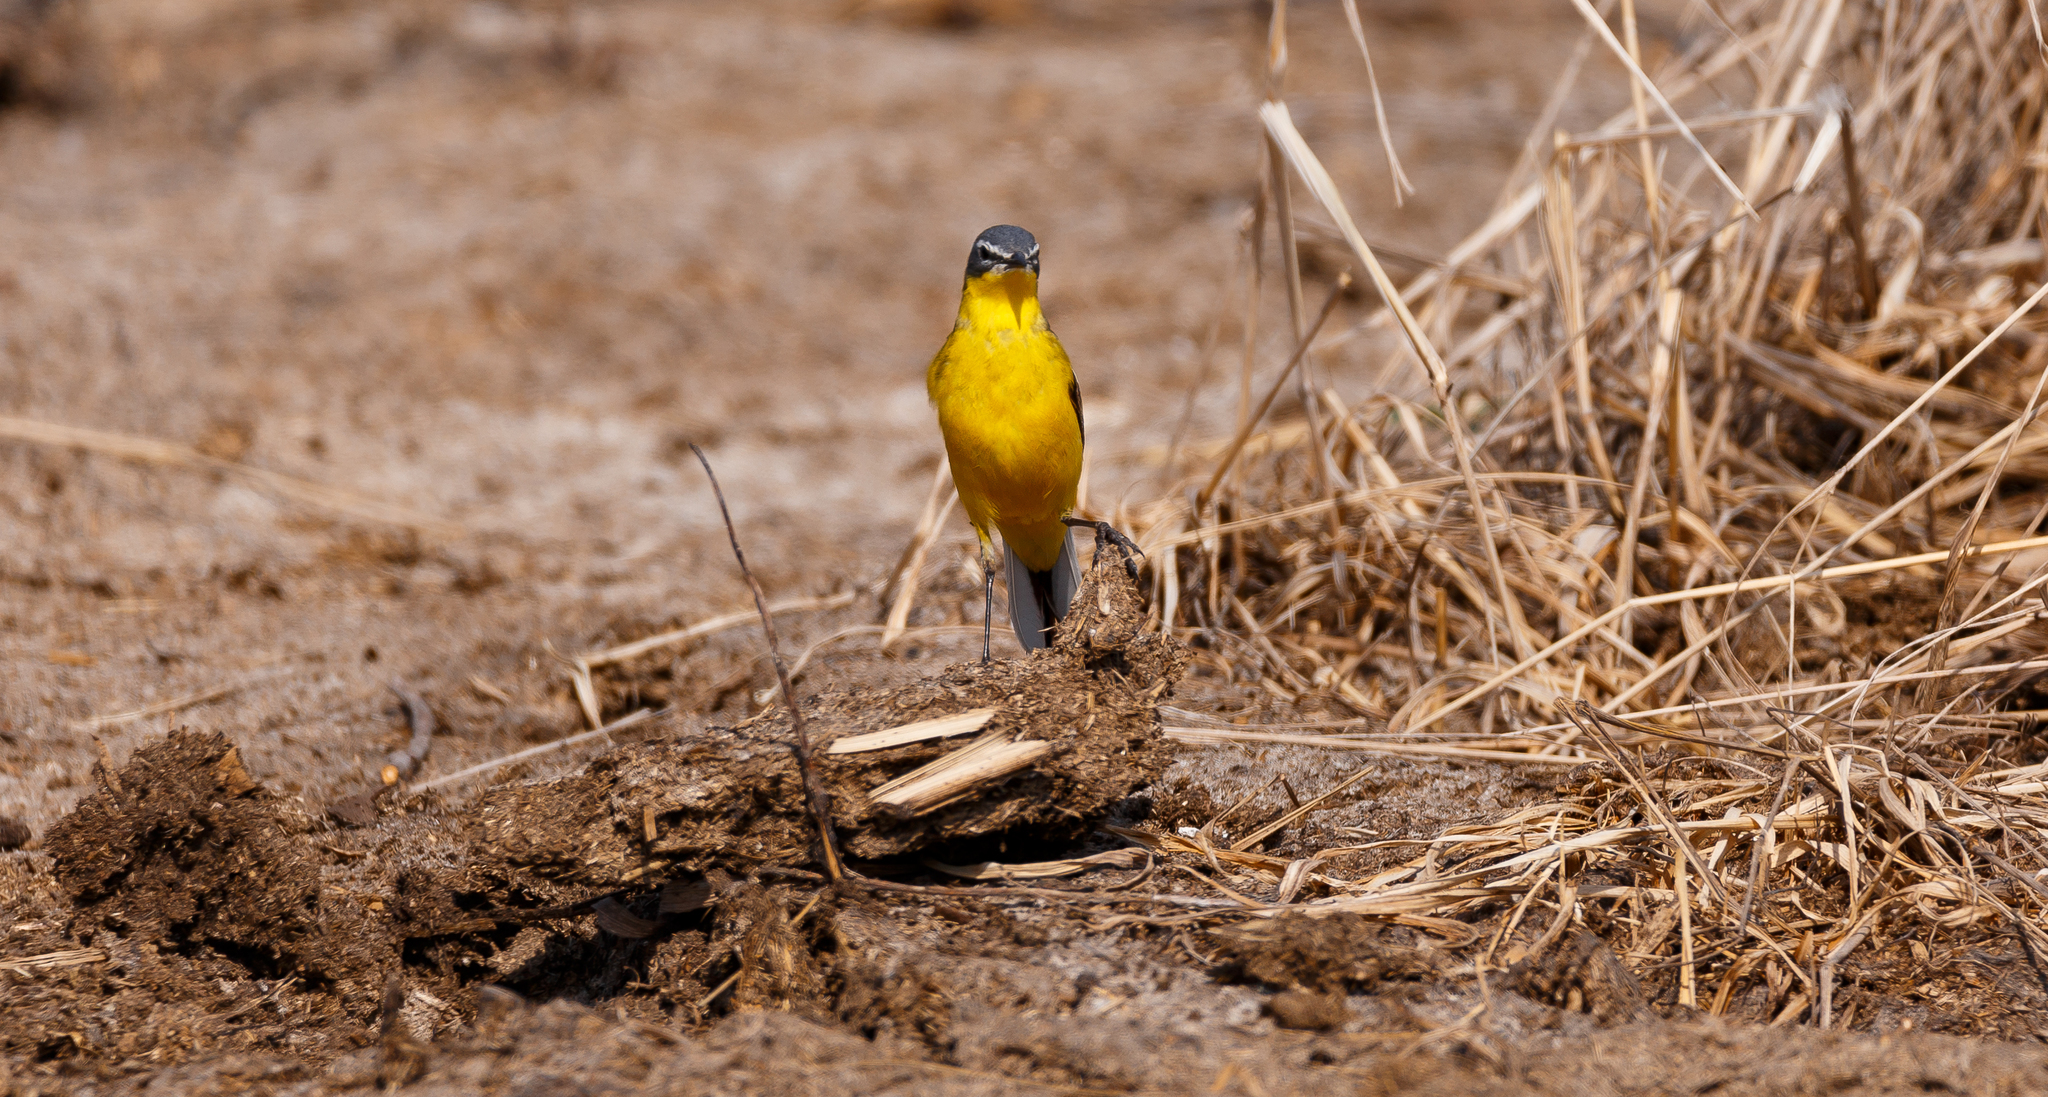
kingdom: Animalia
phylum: Chordata
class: Aves
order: Passeriformes
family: Motacillidae
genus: Motacilla
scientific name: Motacilla flava
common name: Western yellow wagtail
